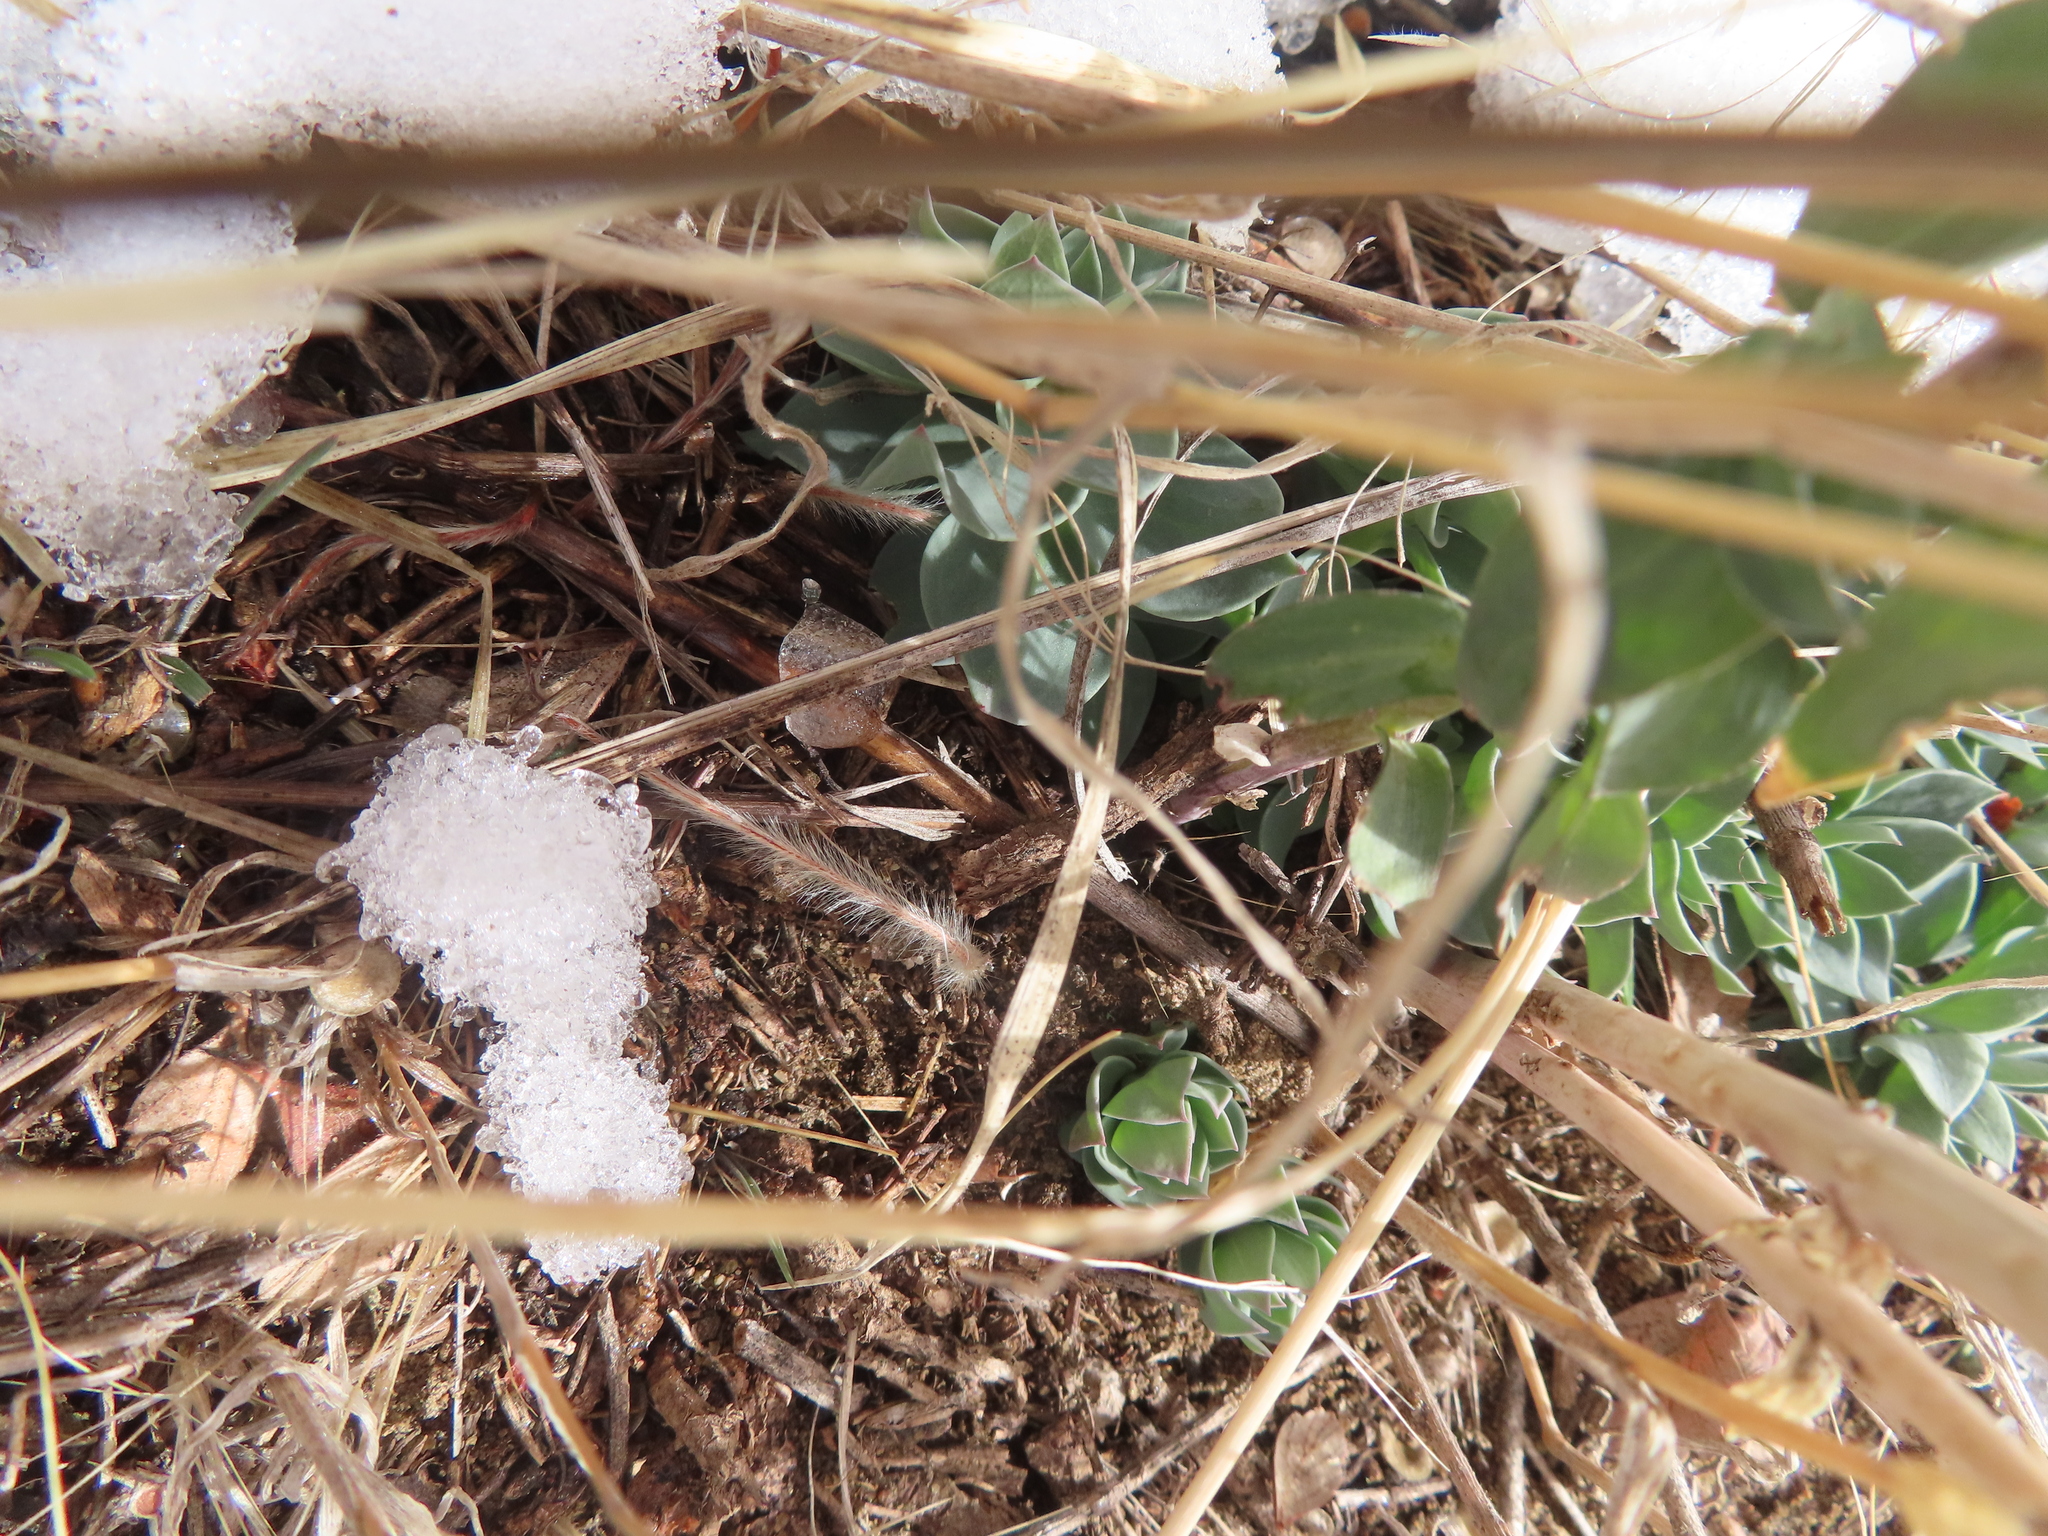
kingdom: Plantae
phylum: Tracheophyta
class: Magnoliopsida
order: Lamiales
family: Plantaginaceae
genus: Linaria
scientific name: Linaria dalmatica
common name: Dalmatian toadflax
